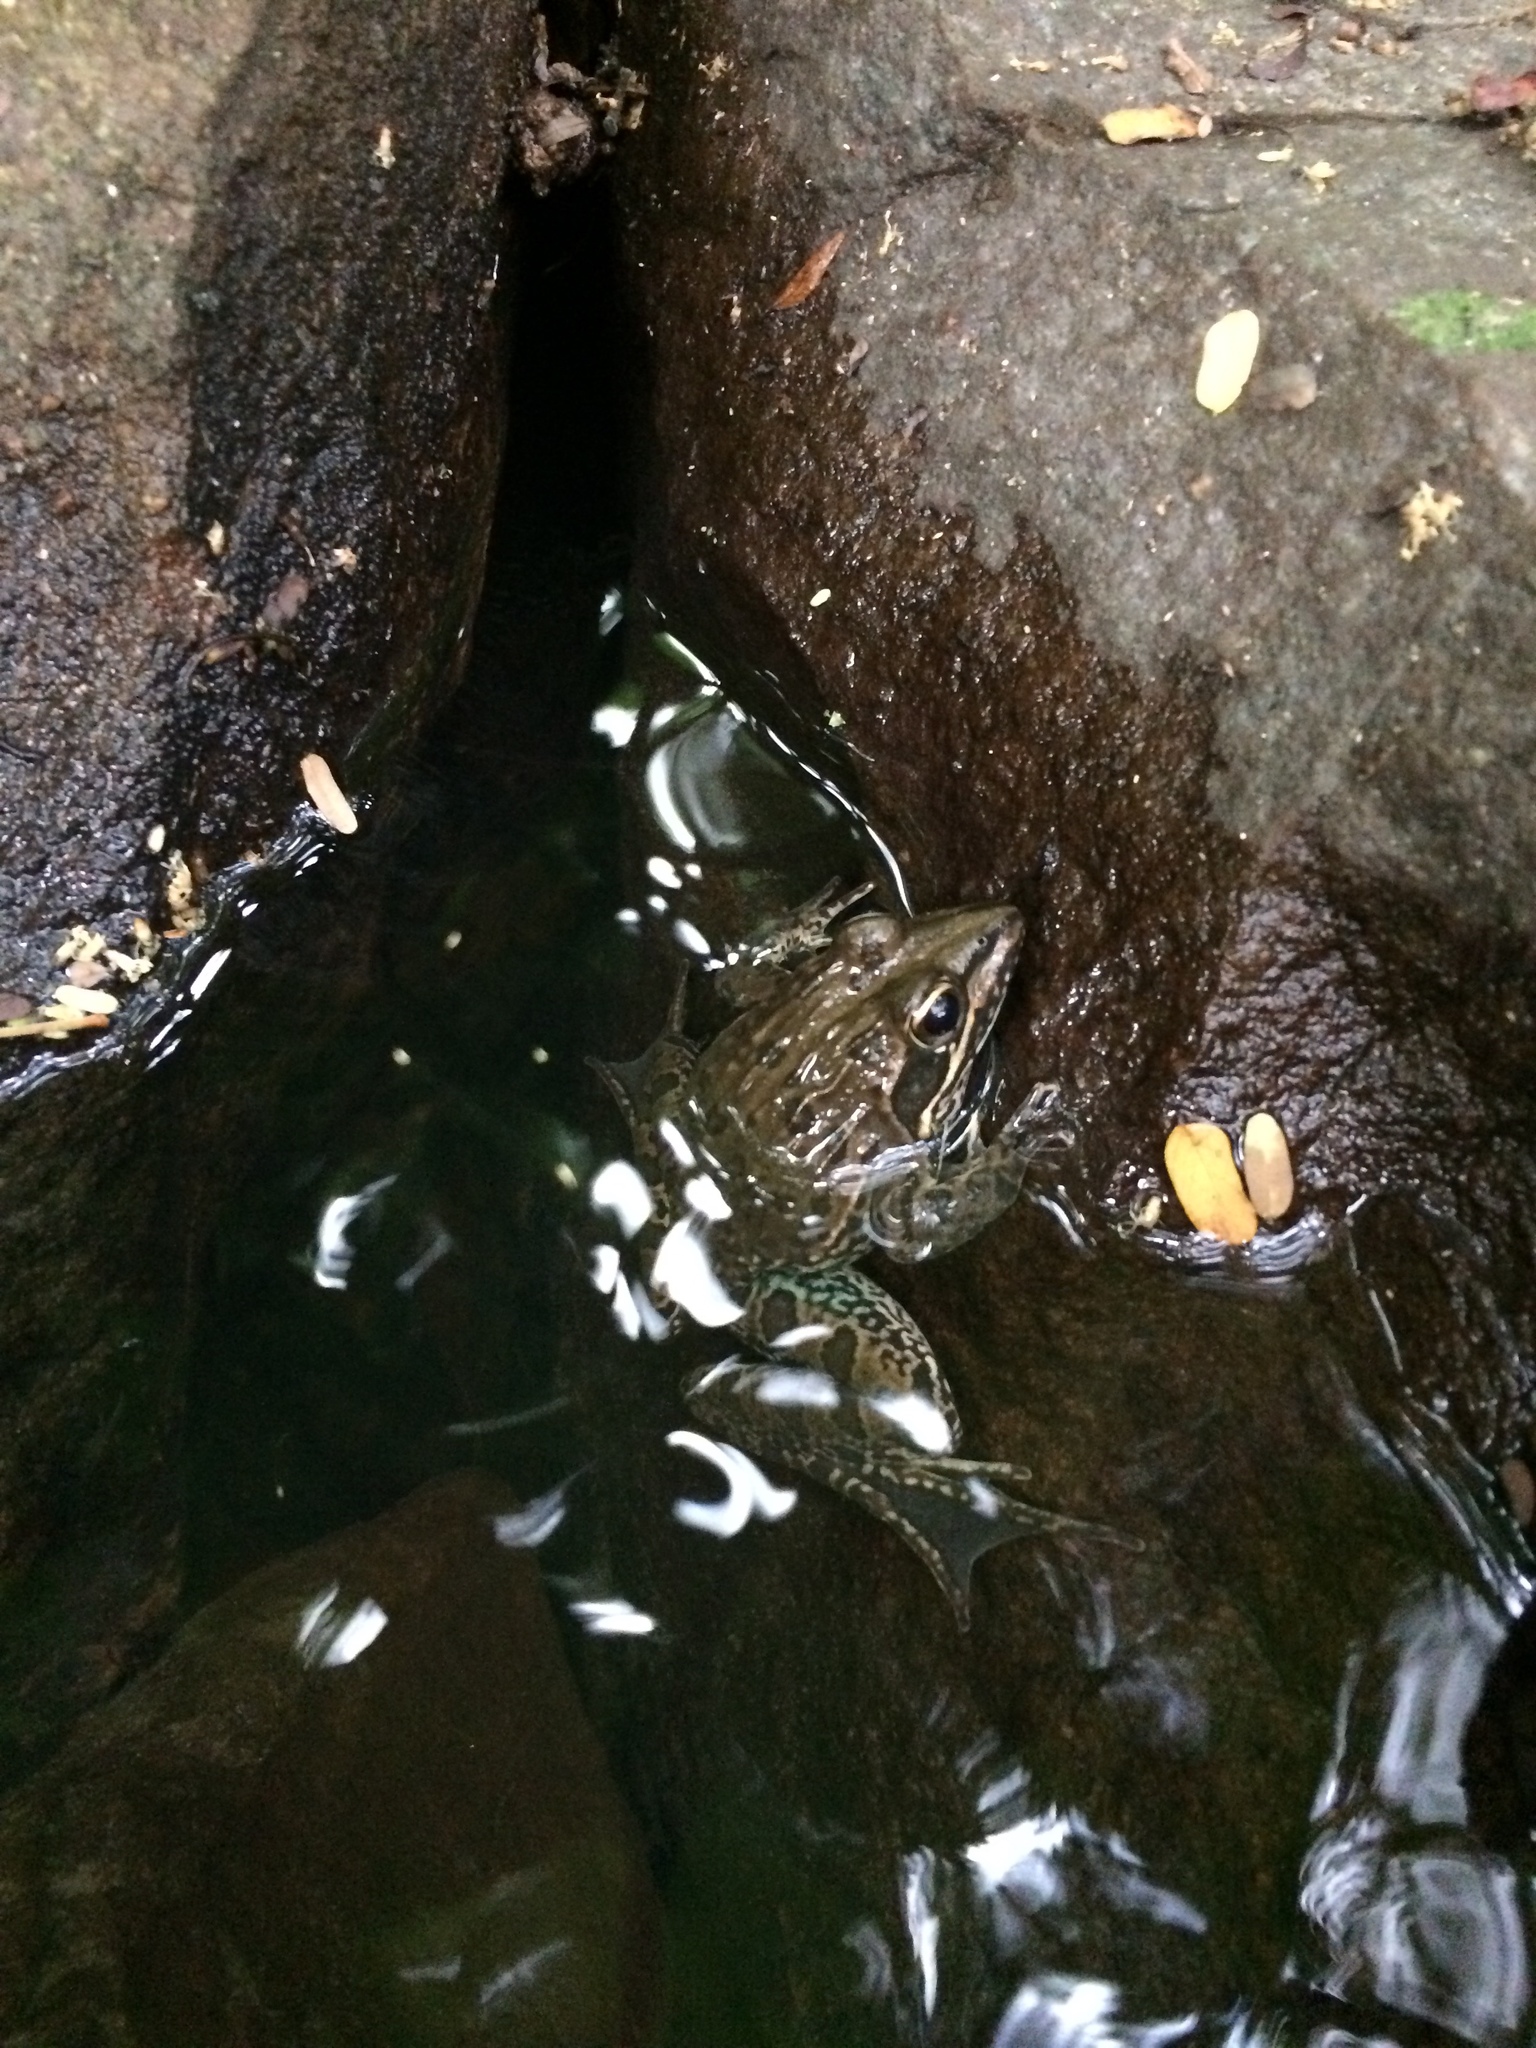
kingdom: Animalia
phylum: Chordata
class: Amphibia
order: Anura
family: Pyxicephalidae
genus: Amietia
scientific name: Amietia delalandii
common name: Delalande's river frog
